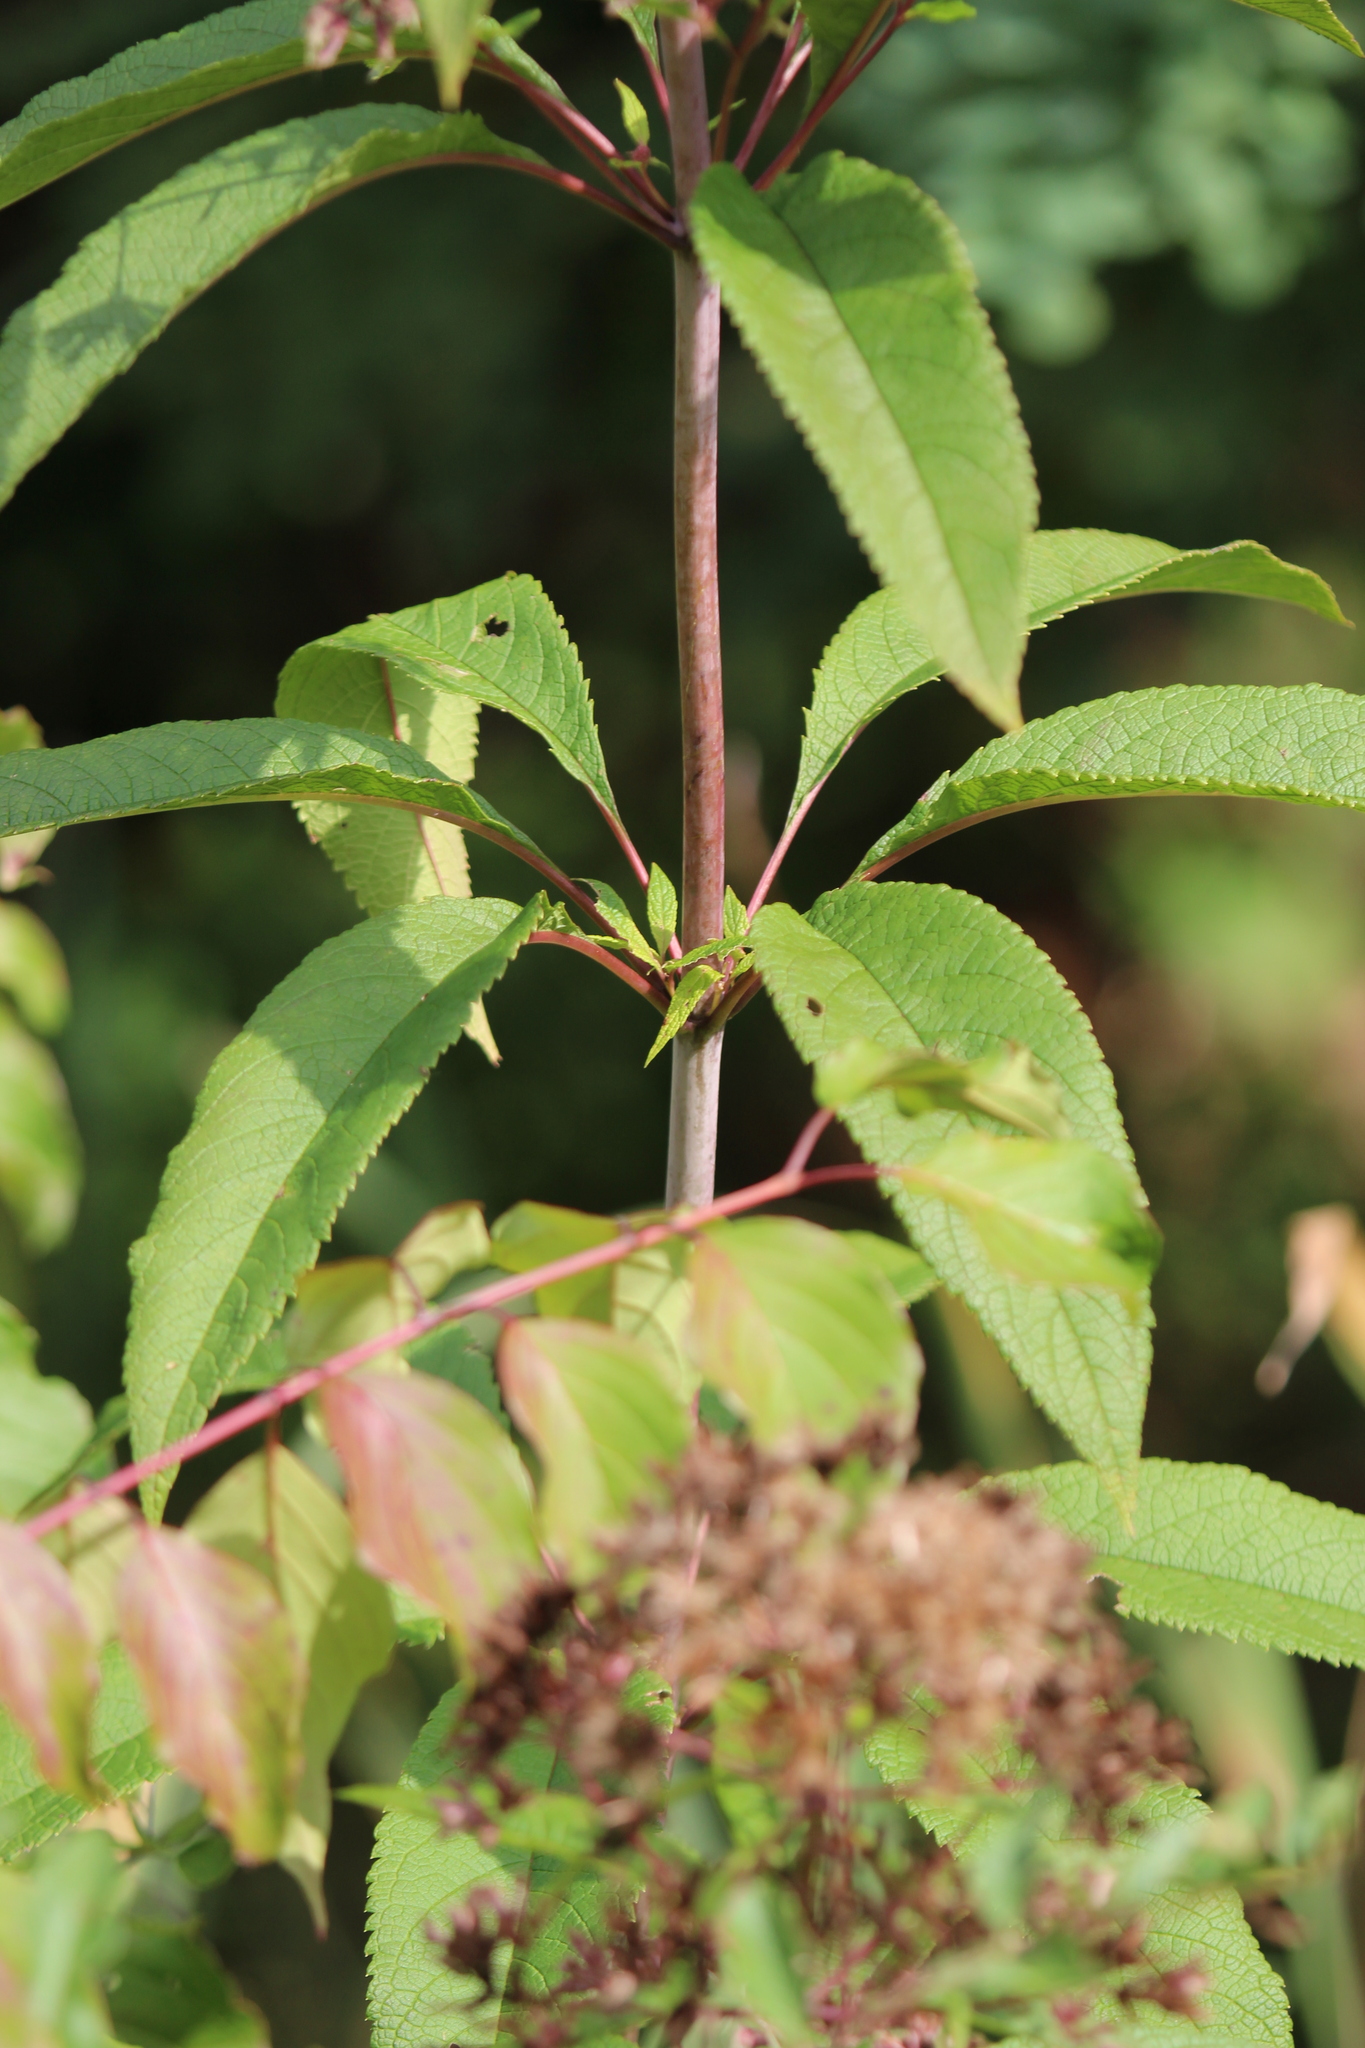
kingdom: Plantae
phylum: Tracheophyta
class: Magnoliopsida
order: Asterales
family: Asteraceae
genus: Eutrochium
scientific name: Eutrochium fistulosum
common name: Trumpetweed
